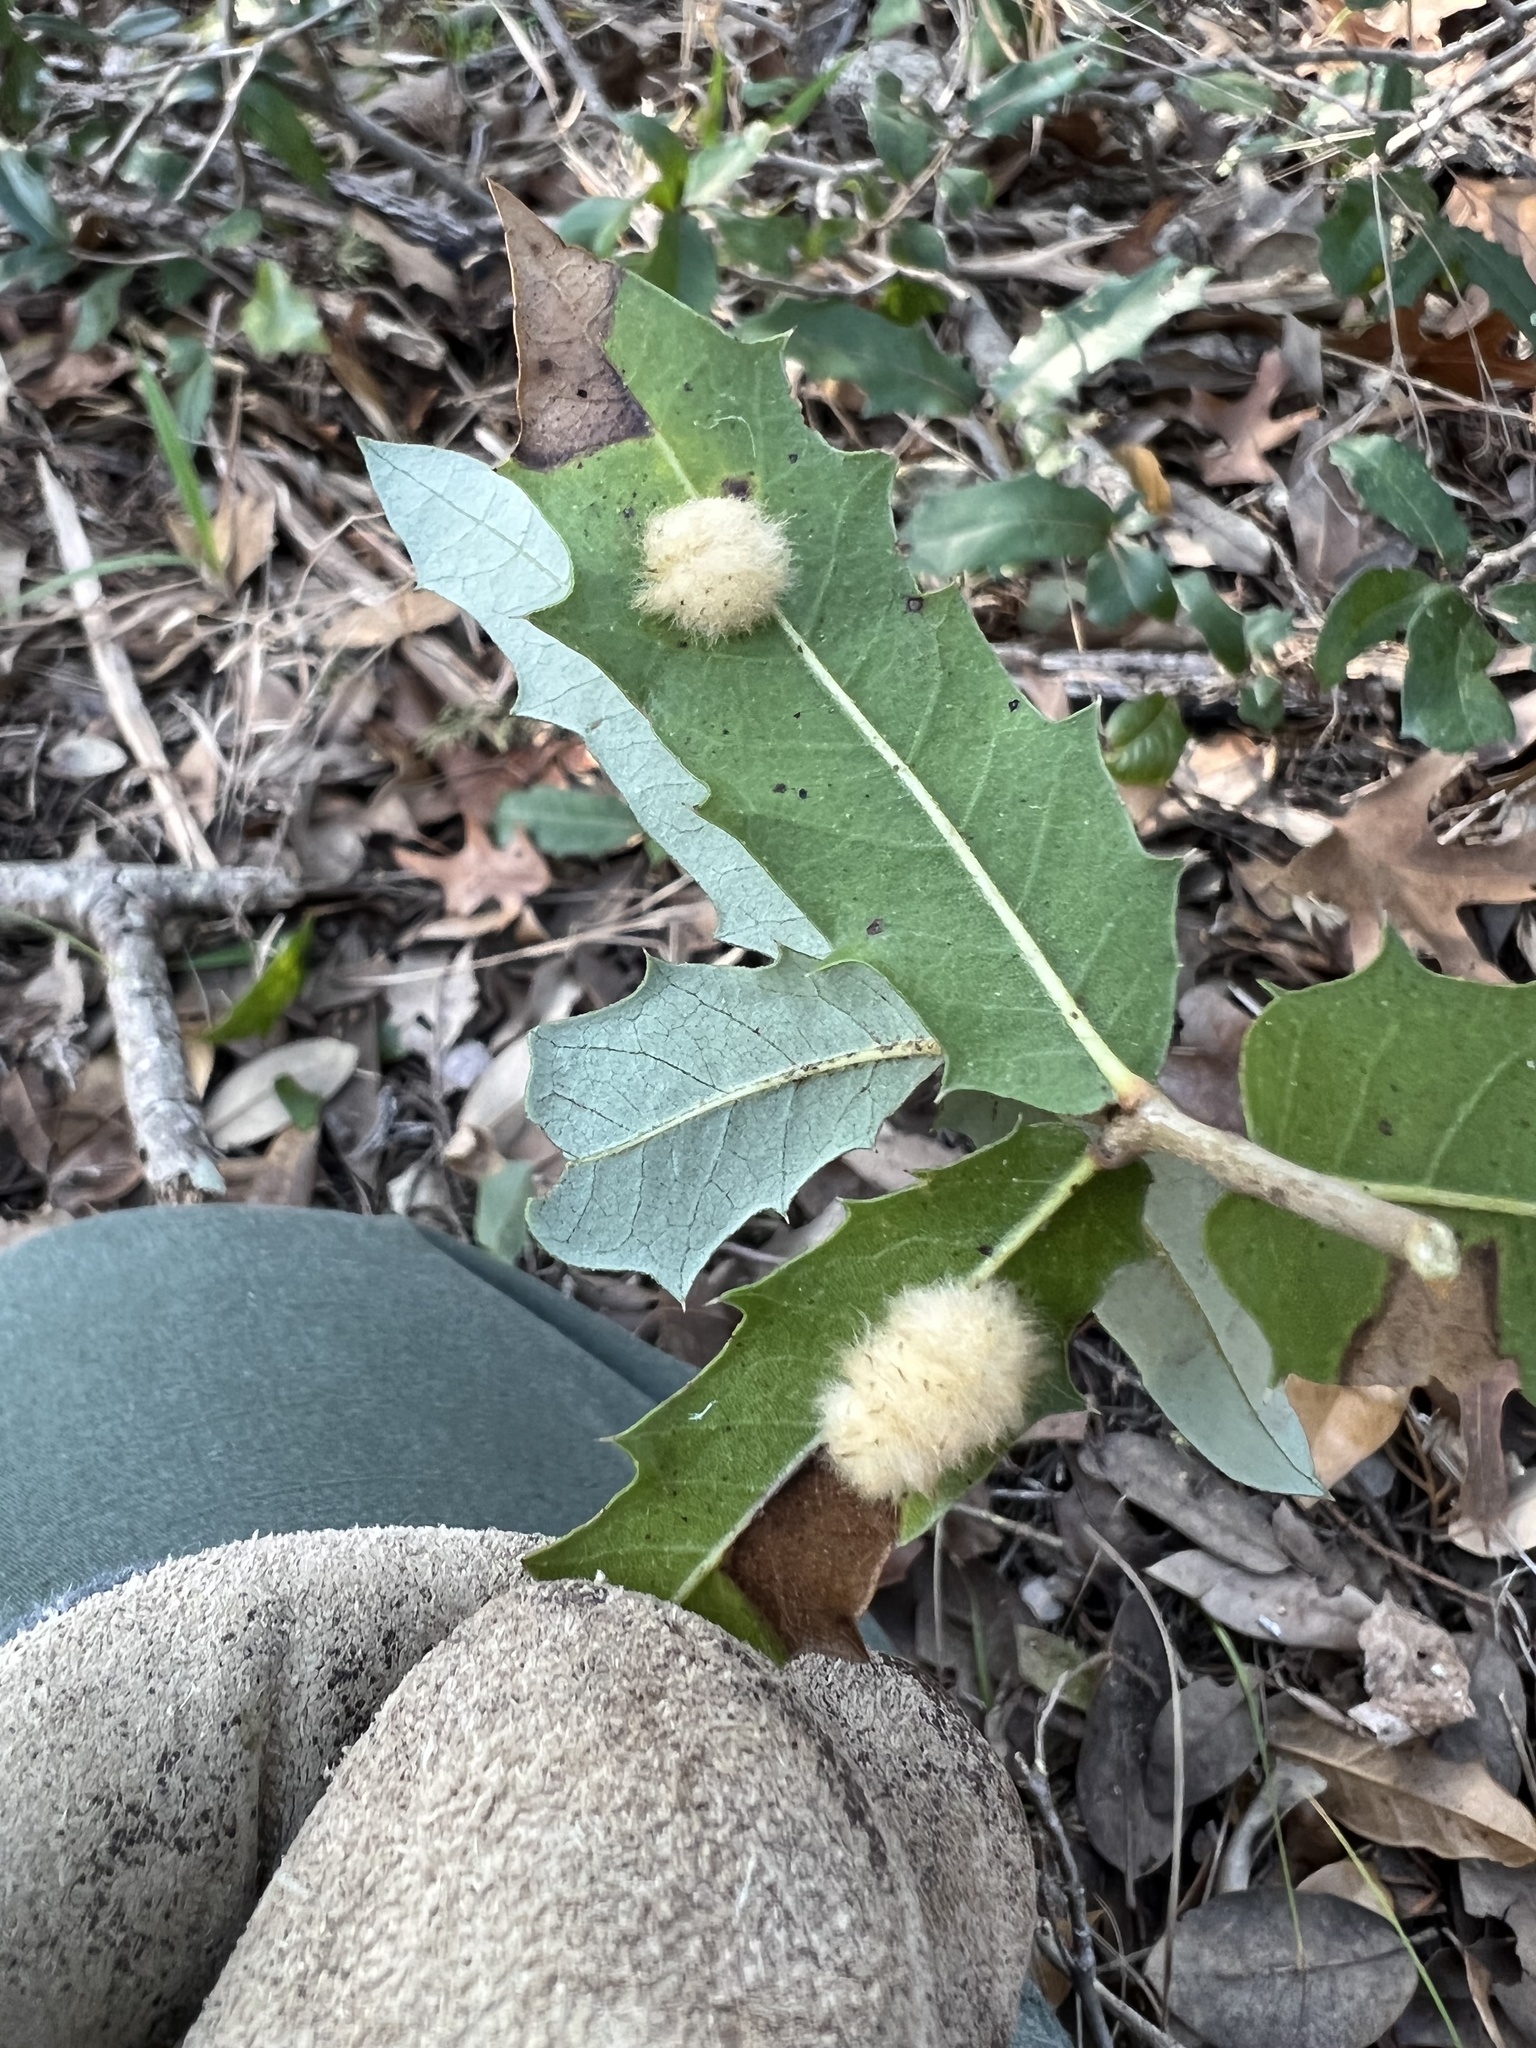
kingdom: Animalia
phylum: Arthropoda
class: Insecta
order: Hymenoptera
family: Cynipidae
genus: Andricus
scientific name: Andricus Druon quercuslanigerum
